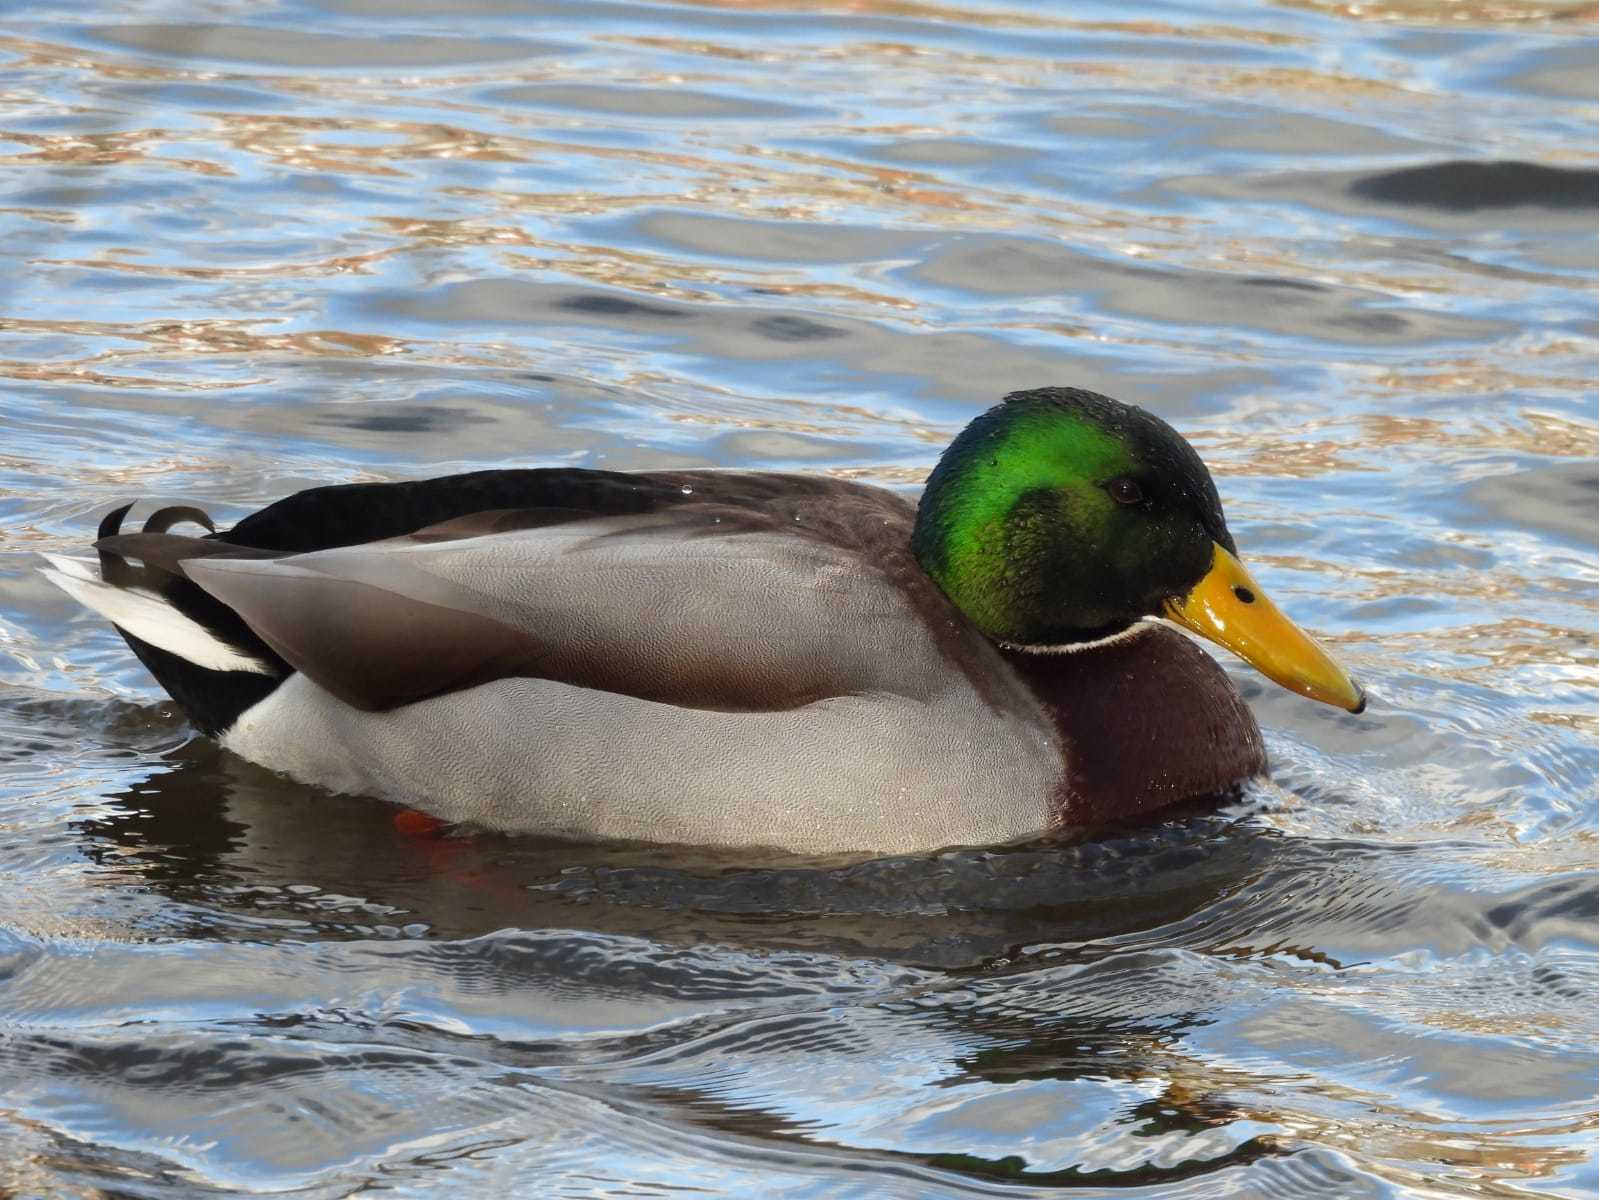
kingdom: Animalia
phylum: Chordata
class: Aves
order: Anseriformes
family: Anatidae
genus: Anas
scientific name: Anas platyrhynchos
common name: Mallard
